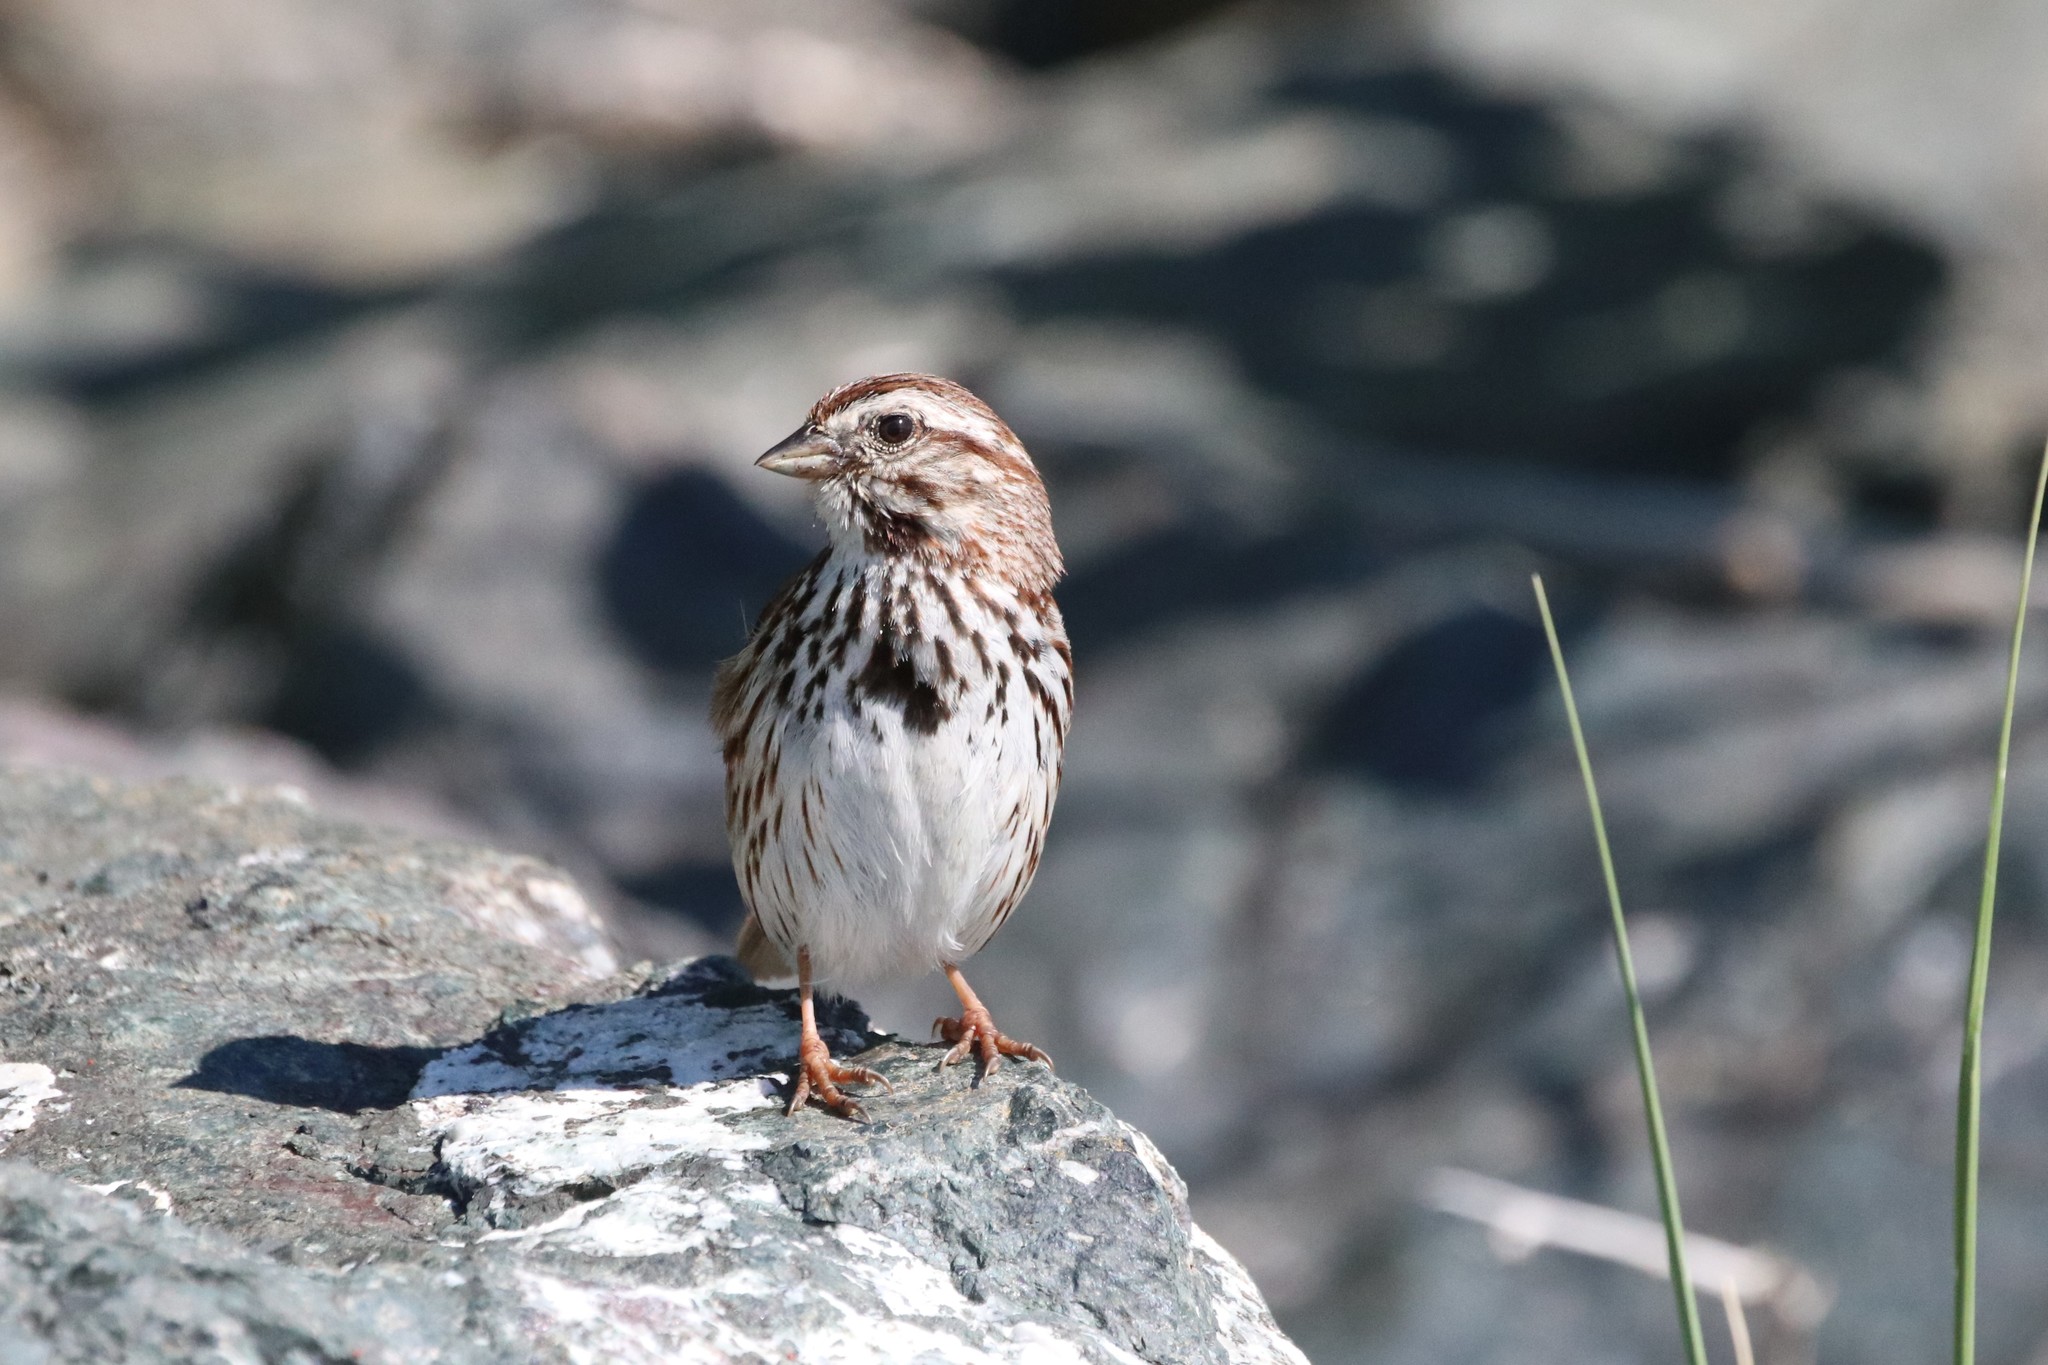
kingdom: Animalia
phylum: Chordata
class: Aves
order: Passeriformes
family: Passerellidae
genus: Melospiza
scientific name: Melospiza melodia
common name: Song sparrow
